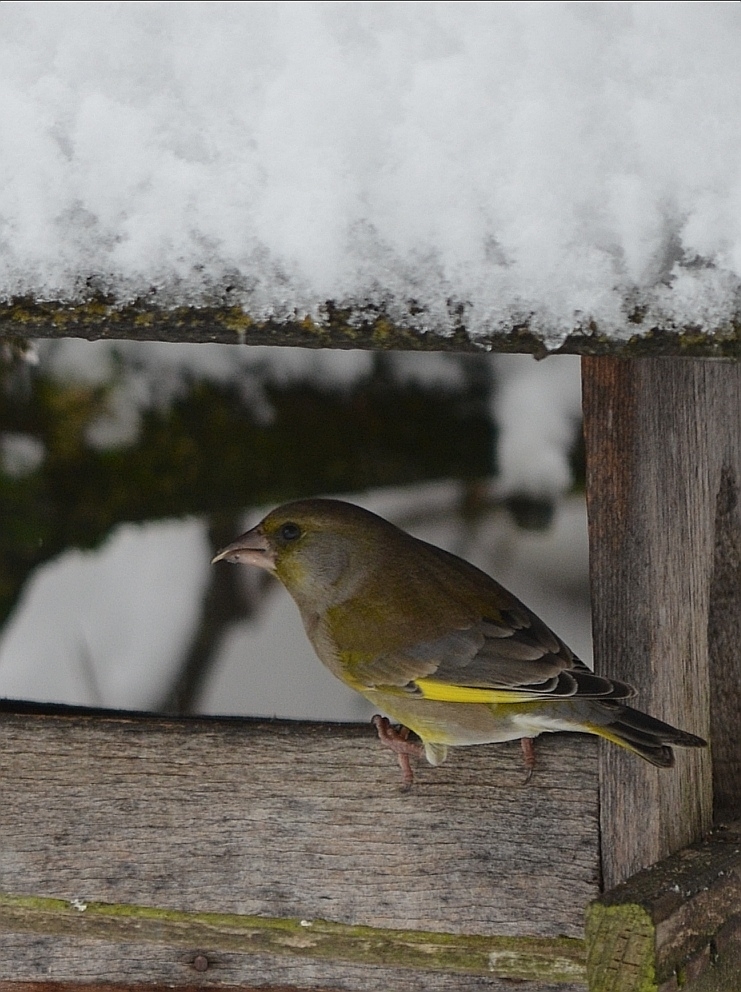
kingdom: Plantae
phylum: Tracheophyta
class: Liliopsida
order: Poales
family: Poaceae
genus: Chloris
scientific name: Chloris chloris
